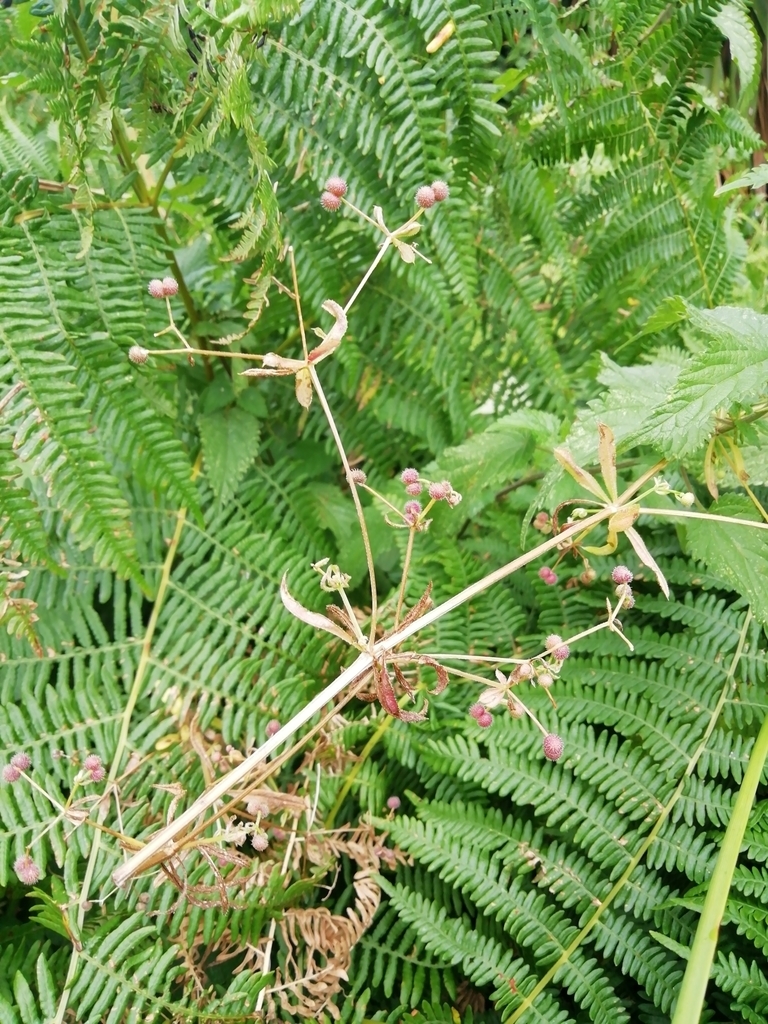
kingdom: Plantae
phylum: Tracheophyta
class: Magnoliopsida
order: Gentianales
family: Rubiaceae
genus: Galium
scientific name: Galium aparine
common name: Cleavers
